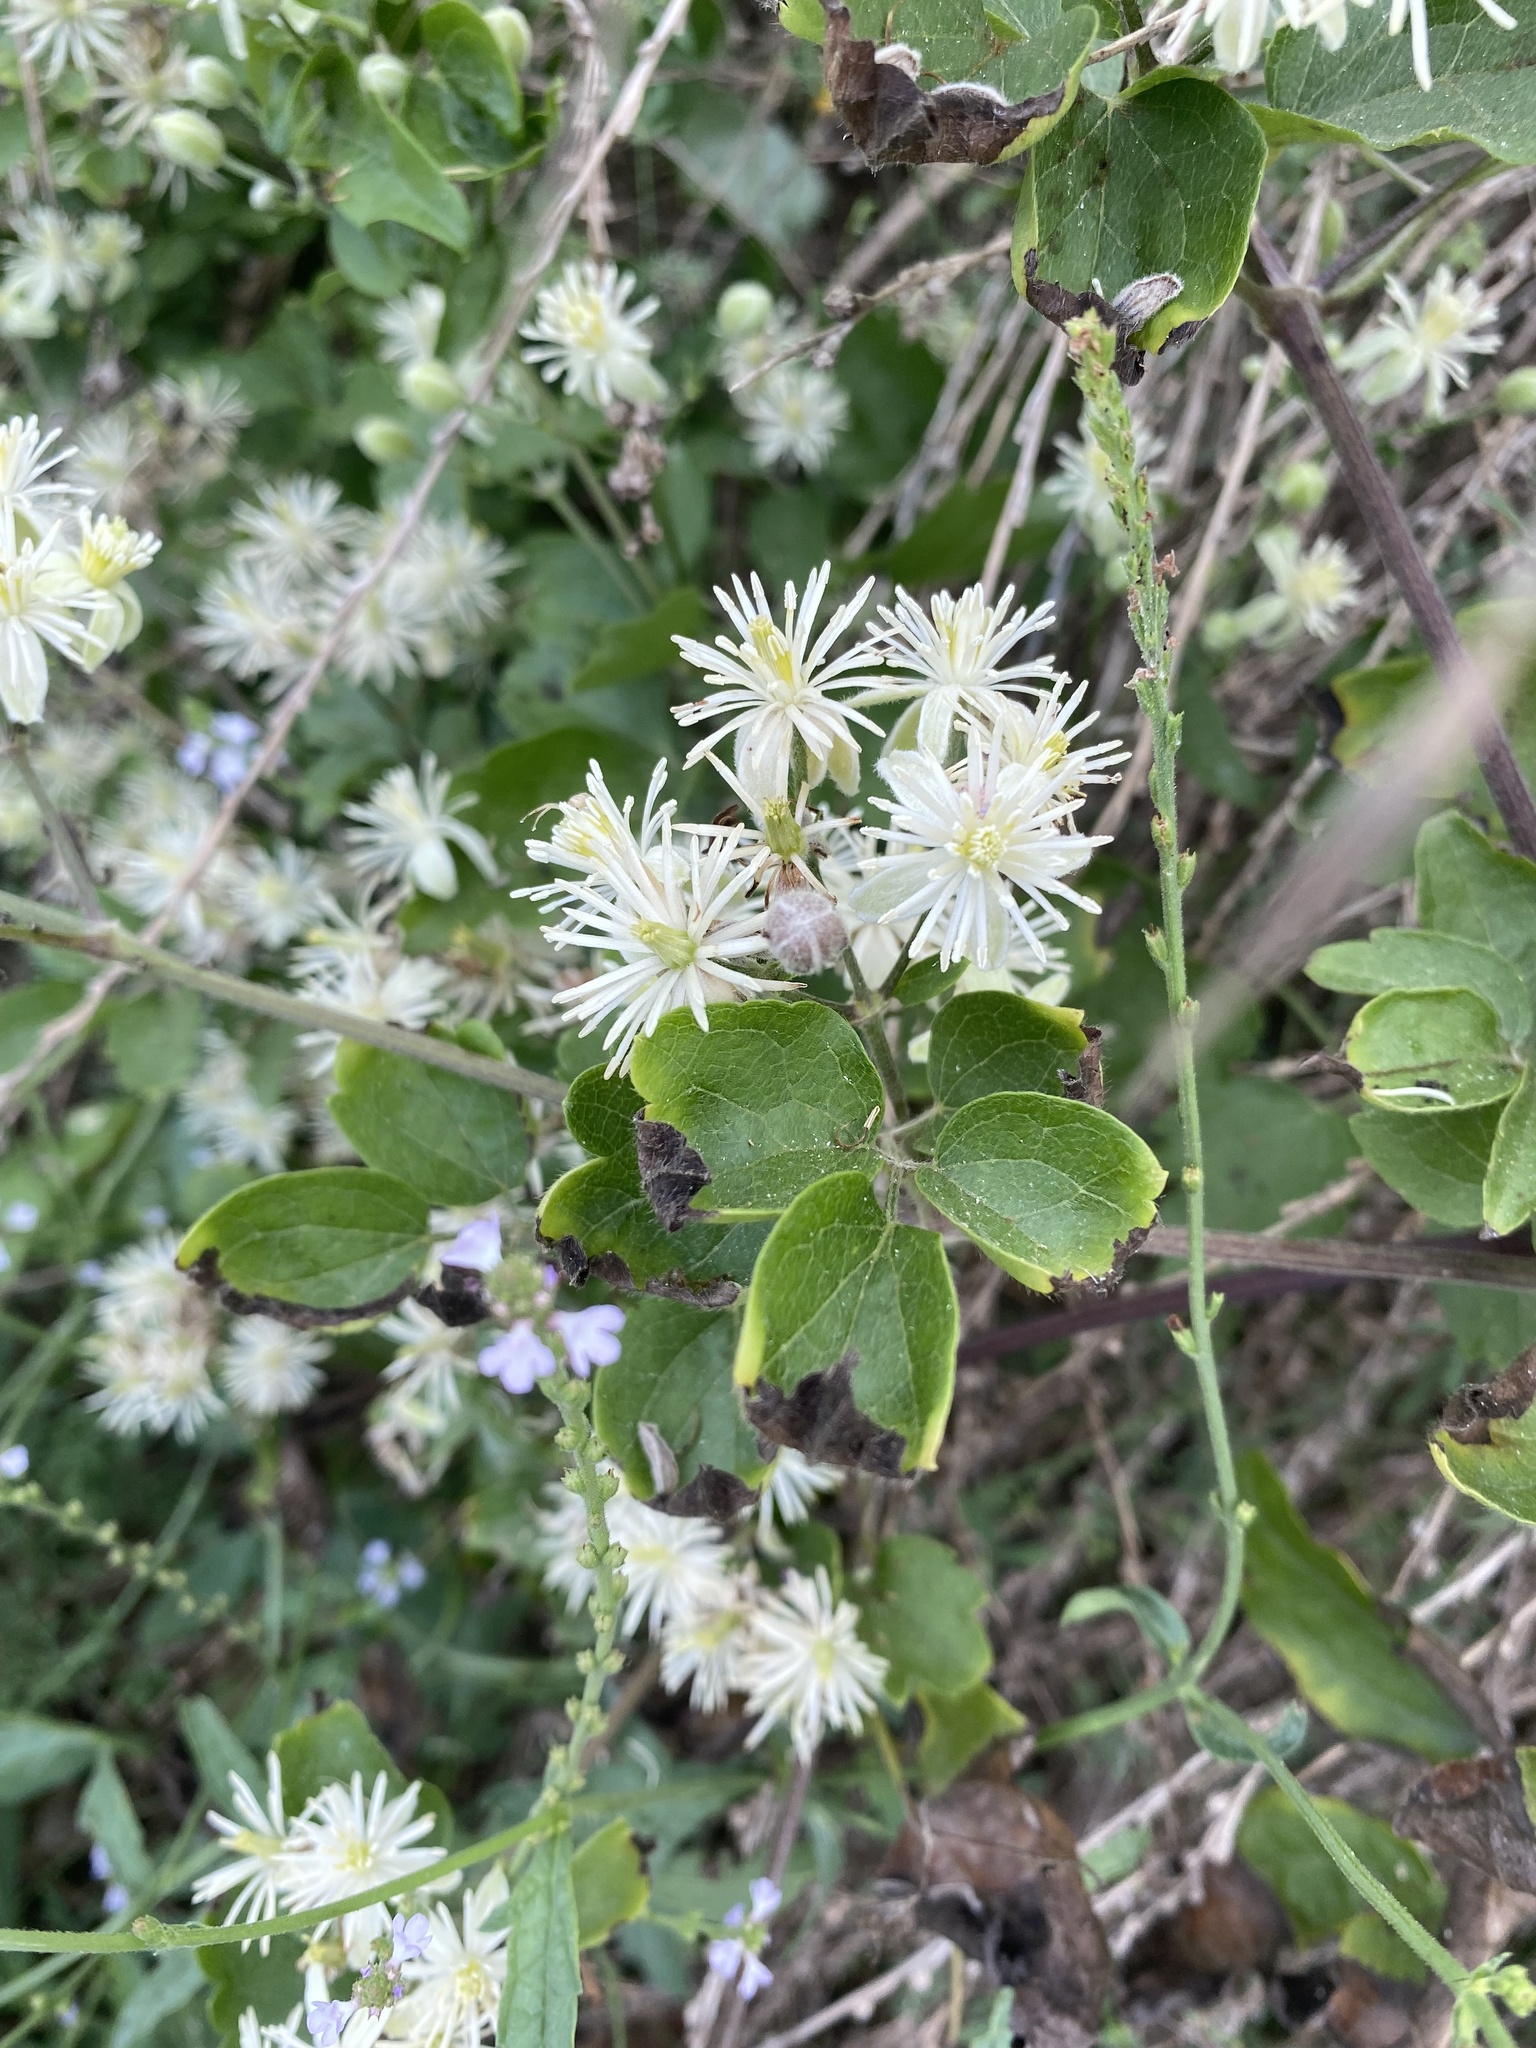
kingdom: Plantae
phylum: Tracheophyta
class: Magnoliopsida
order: Ranunculales
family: Ranunculaceae
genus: Clematis
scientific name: Clematis vitalba
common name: Evergreen clematis
